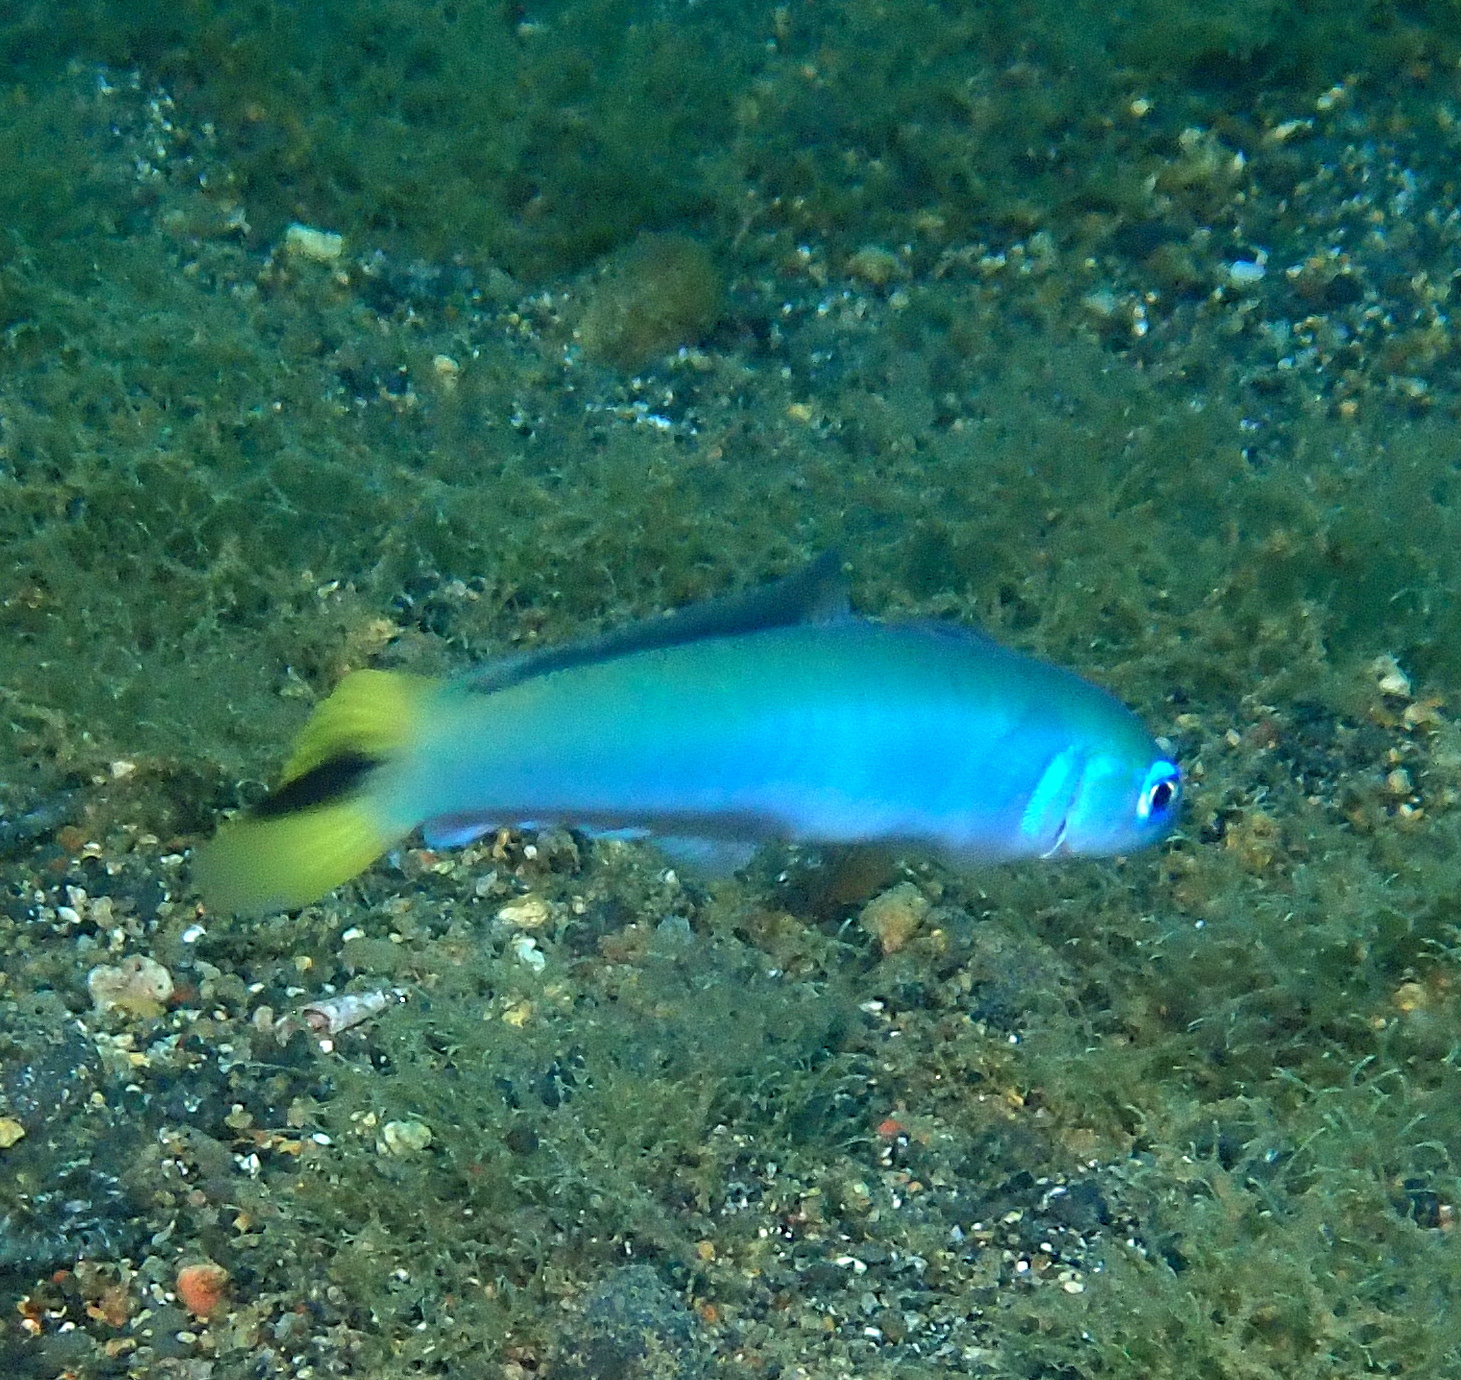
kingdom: Animalia
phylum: Chordata
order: Perciformes
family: Microdesmidae
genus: Ptereleotris
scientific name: Ptereleotris heteroptera
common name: Blacktail goby
